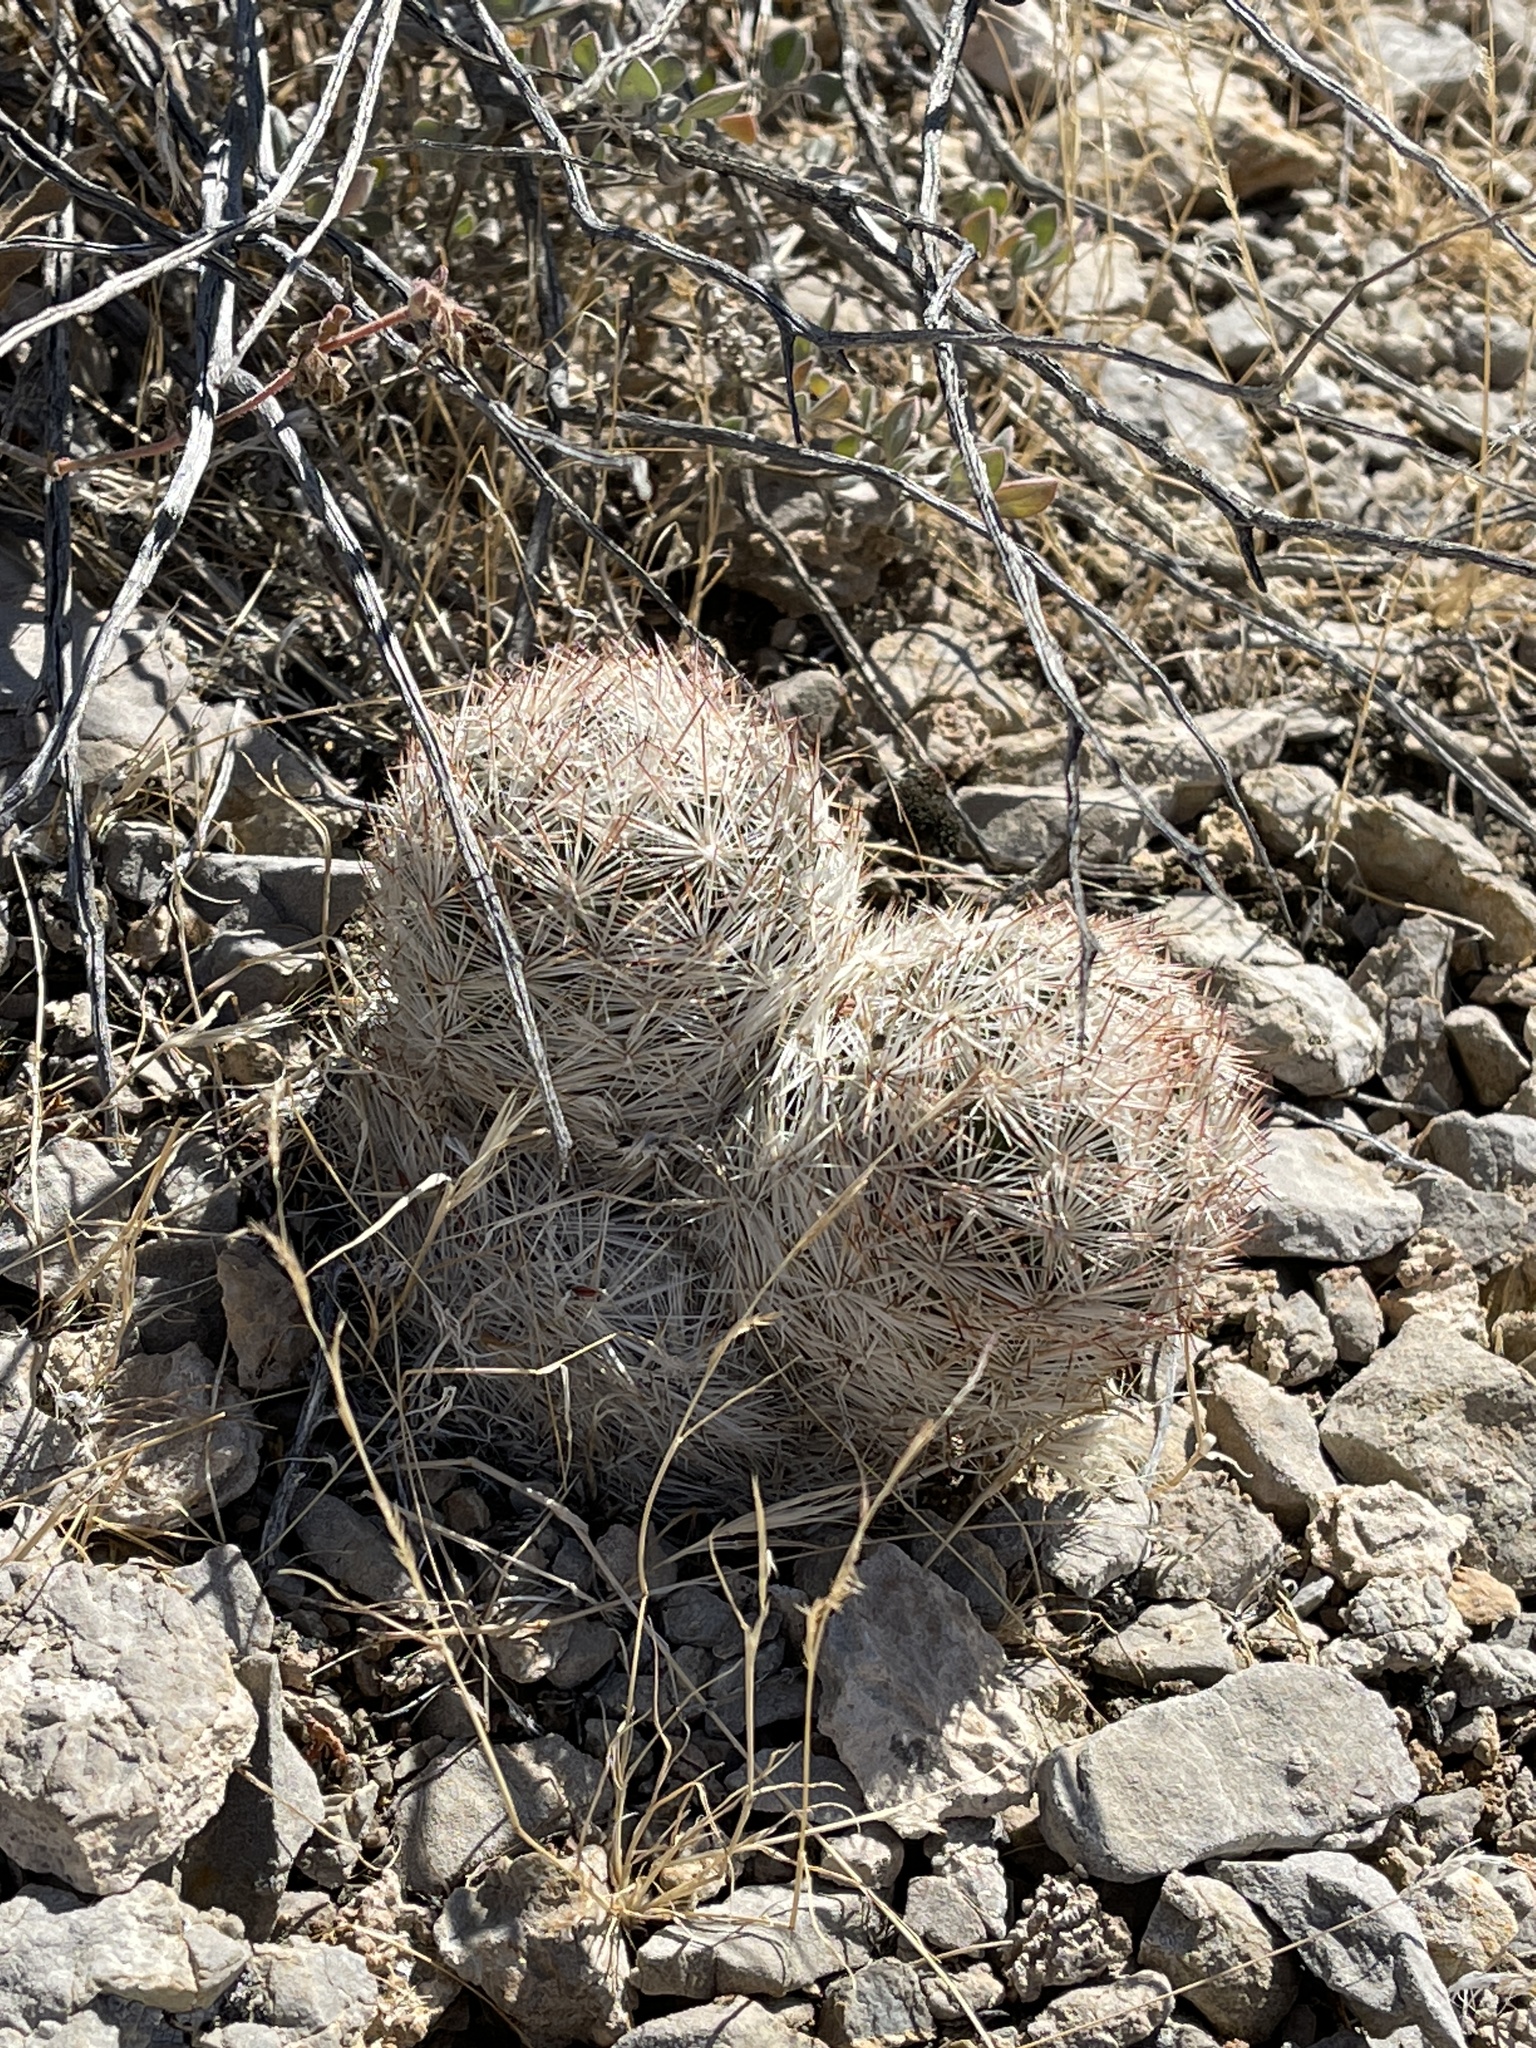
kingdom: Plantae
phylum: Tracheophyta
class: Magnoliopsida
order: Caryophyllales
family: Cactaceae
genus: Pelecyphora
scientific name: Pelecyphora dasyacantha
